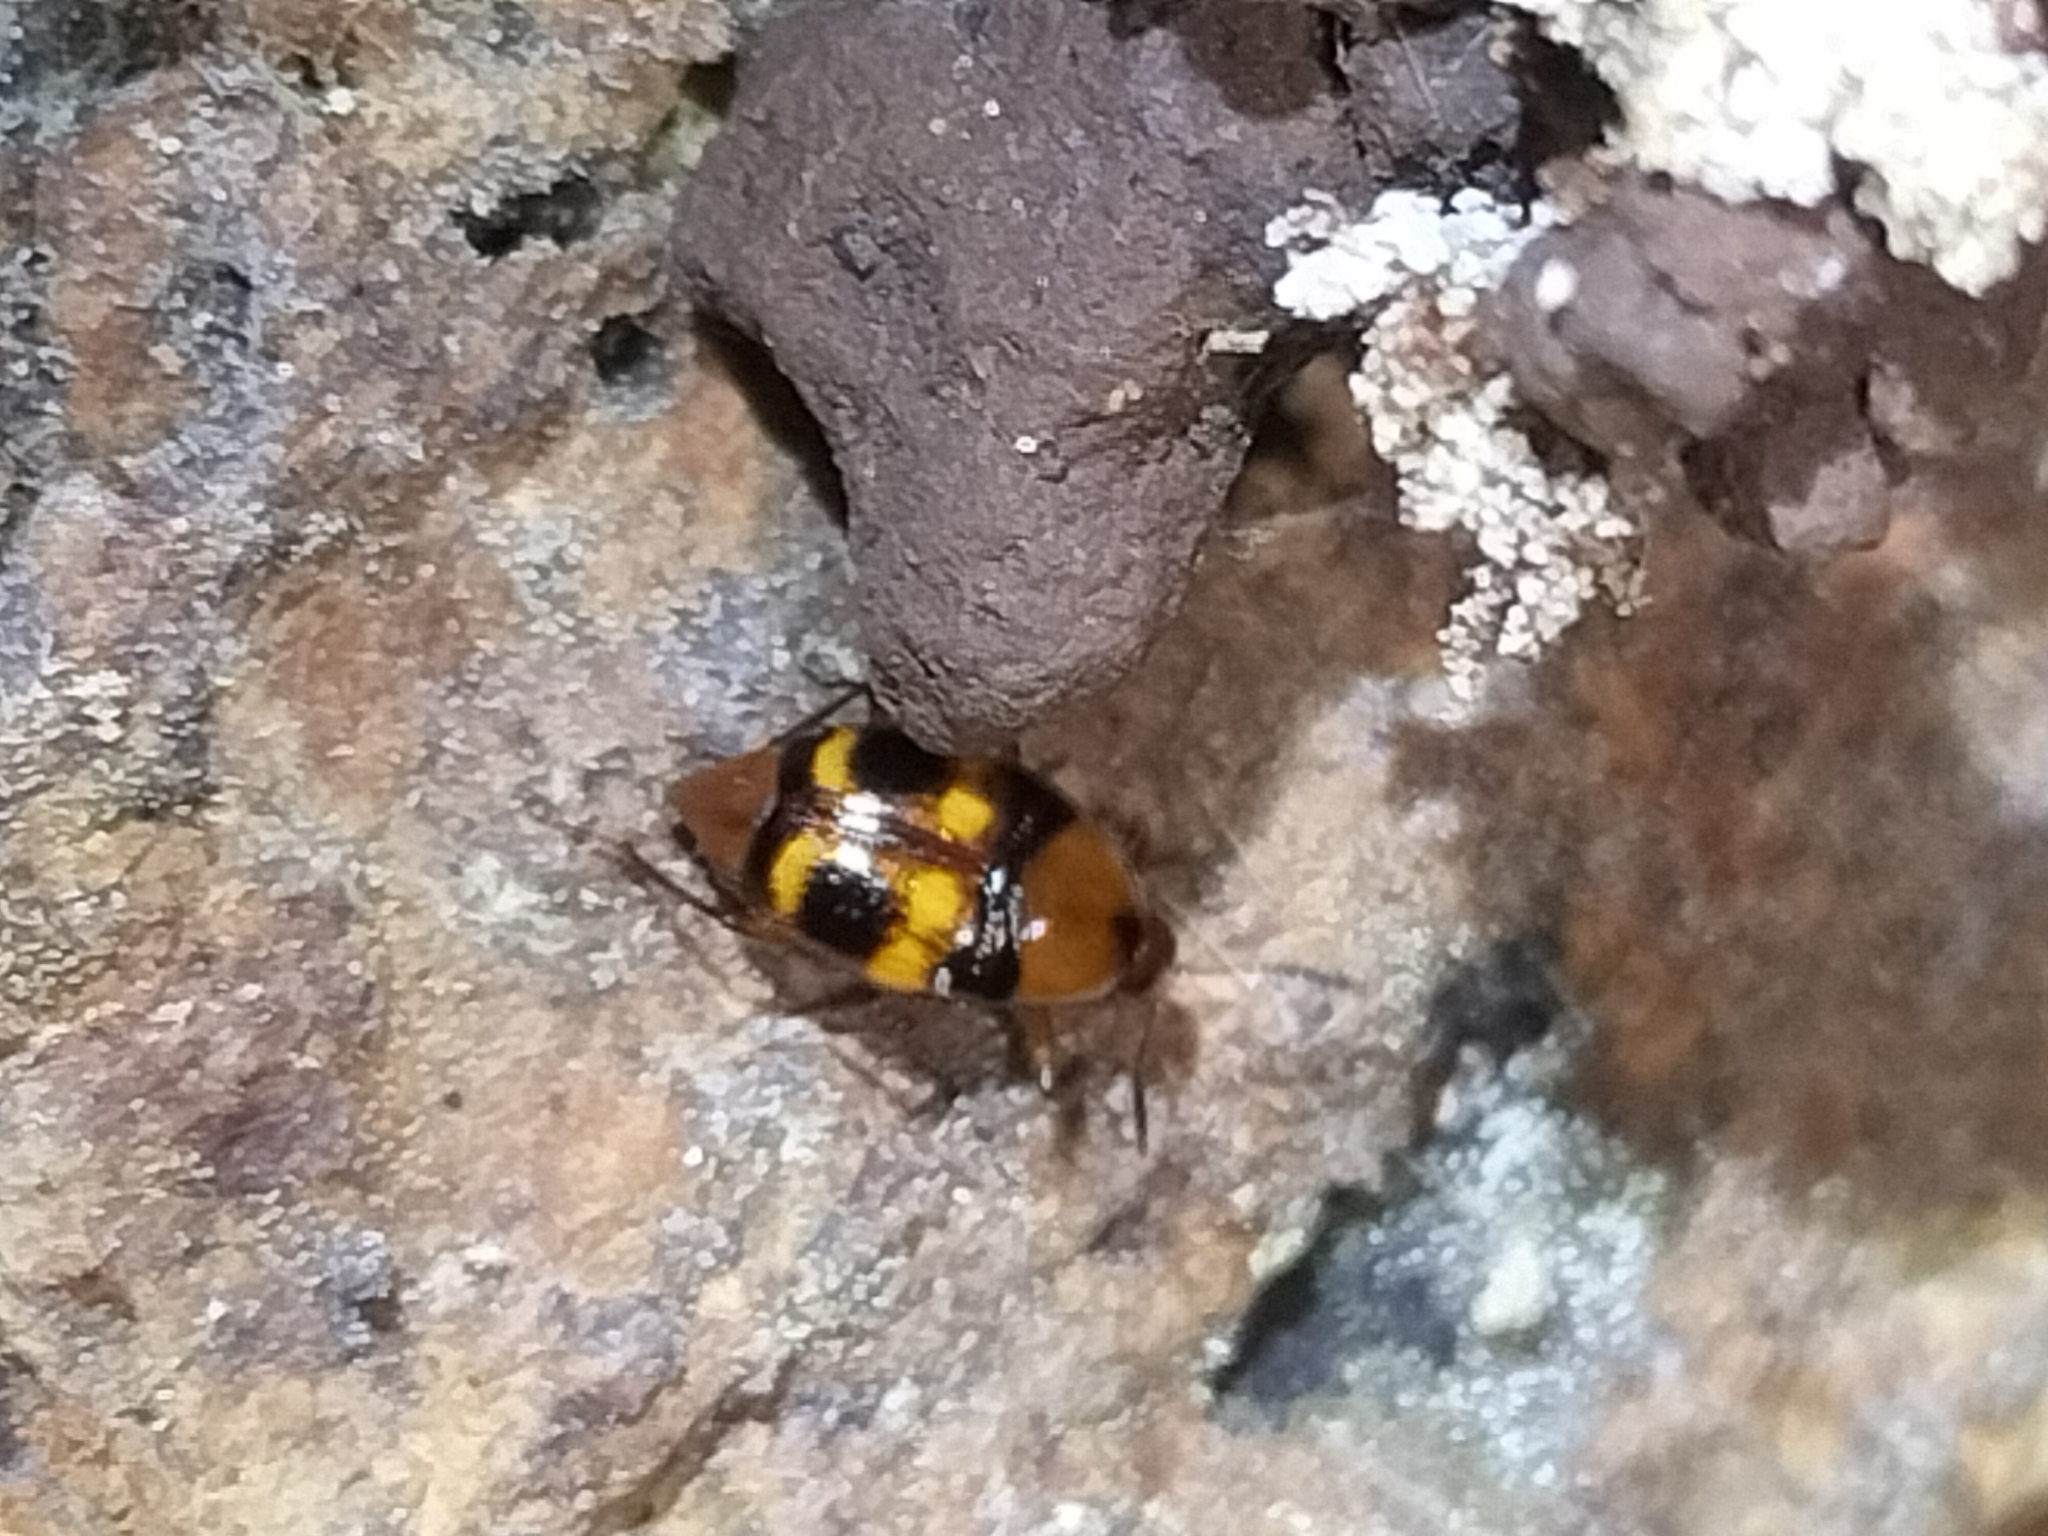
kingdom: Animalia
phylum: Arthropoda
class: Insecta
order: Coleoptera
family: Staphylinidae
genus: Scaphidium
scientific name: Scaphidium trimaculatum
